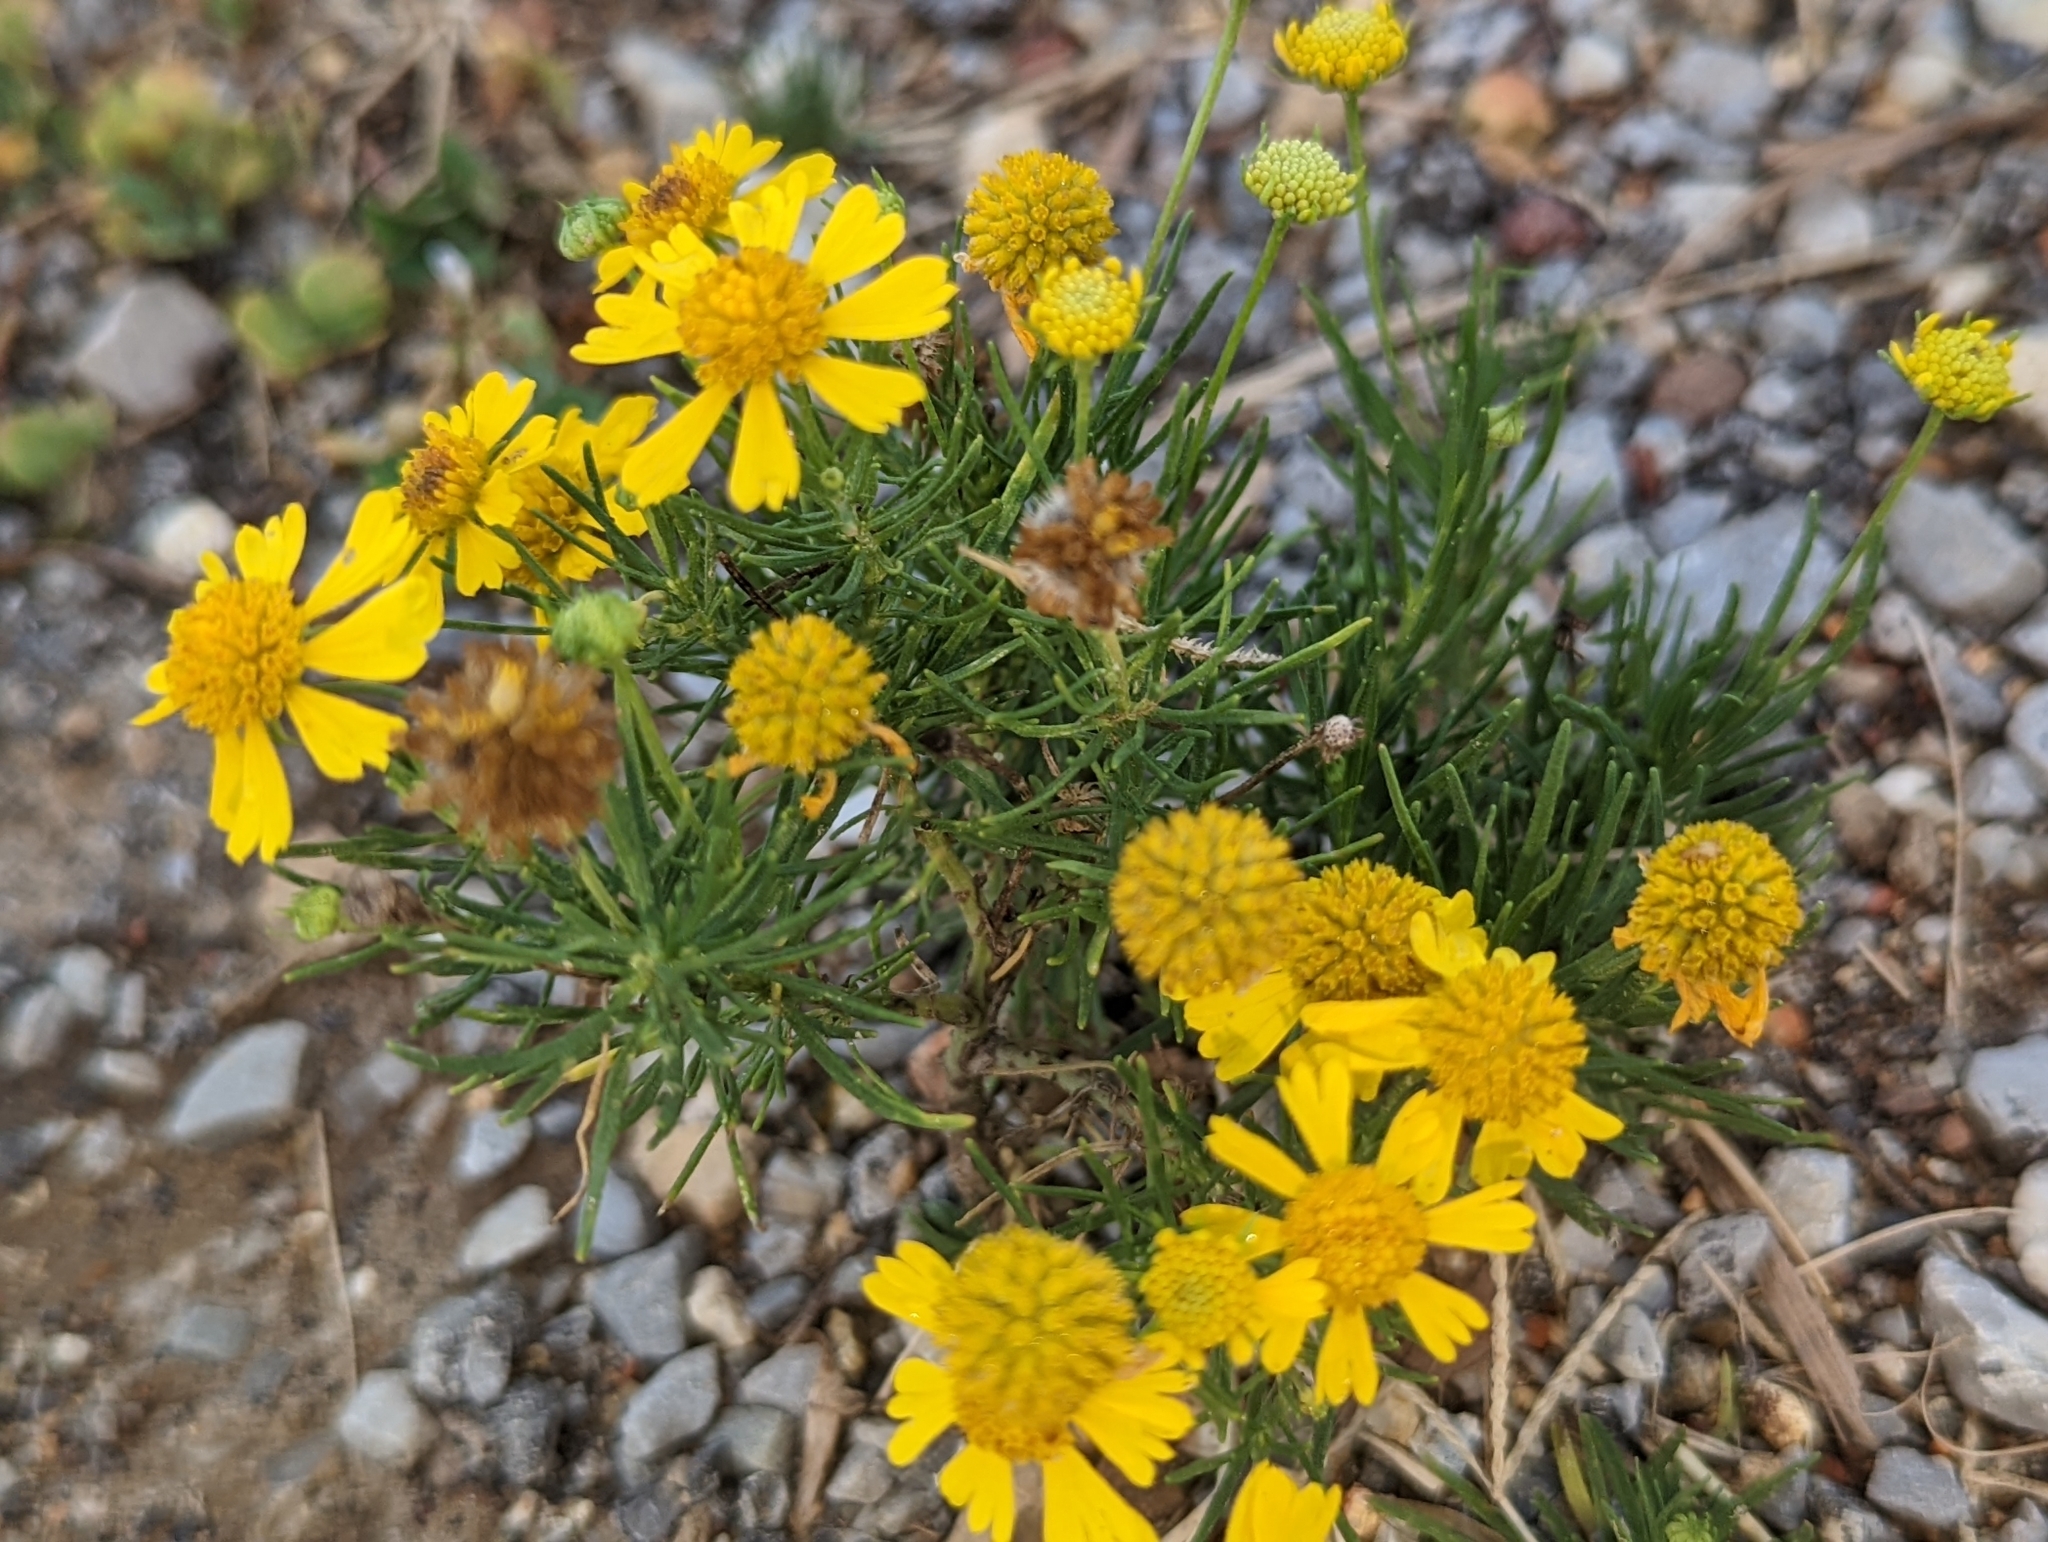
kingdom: Plantae
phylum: Tracheophyta
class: Magnoliopsida
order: Asterales
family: Asteraceae
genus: Helenium
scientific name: Helenium amarum
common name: Bitter sneezeweed
